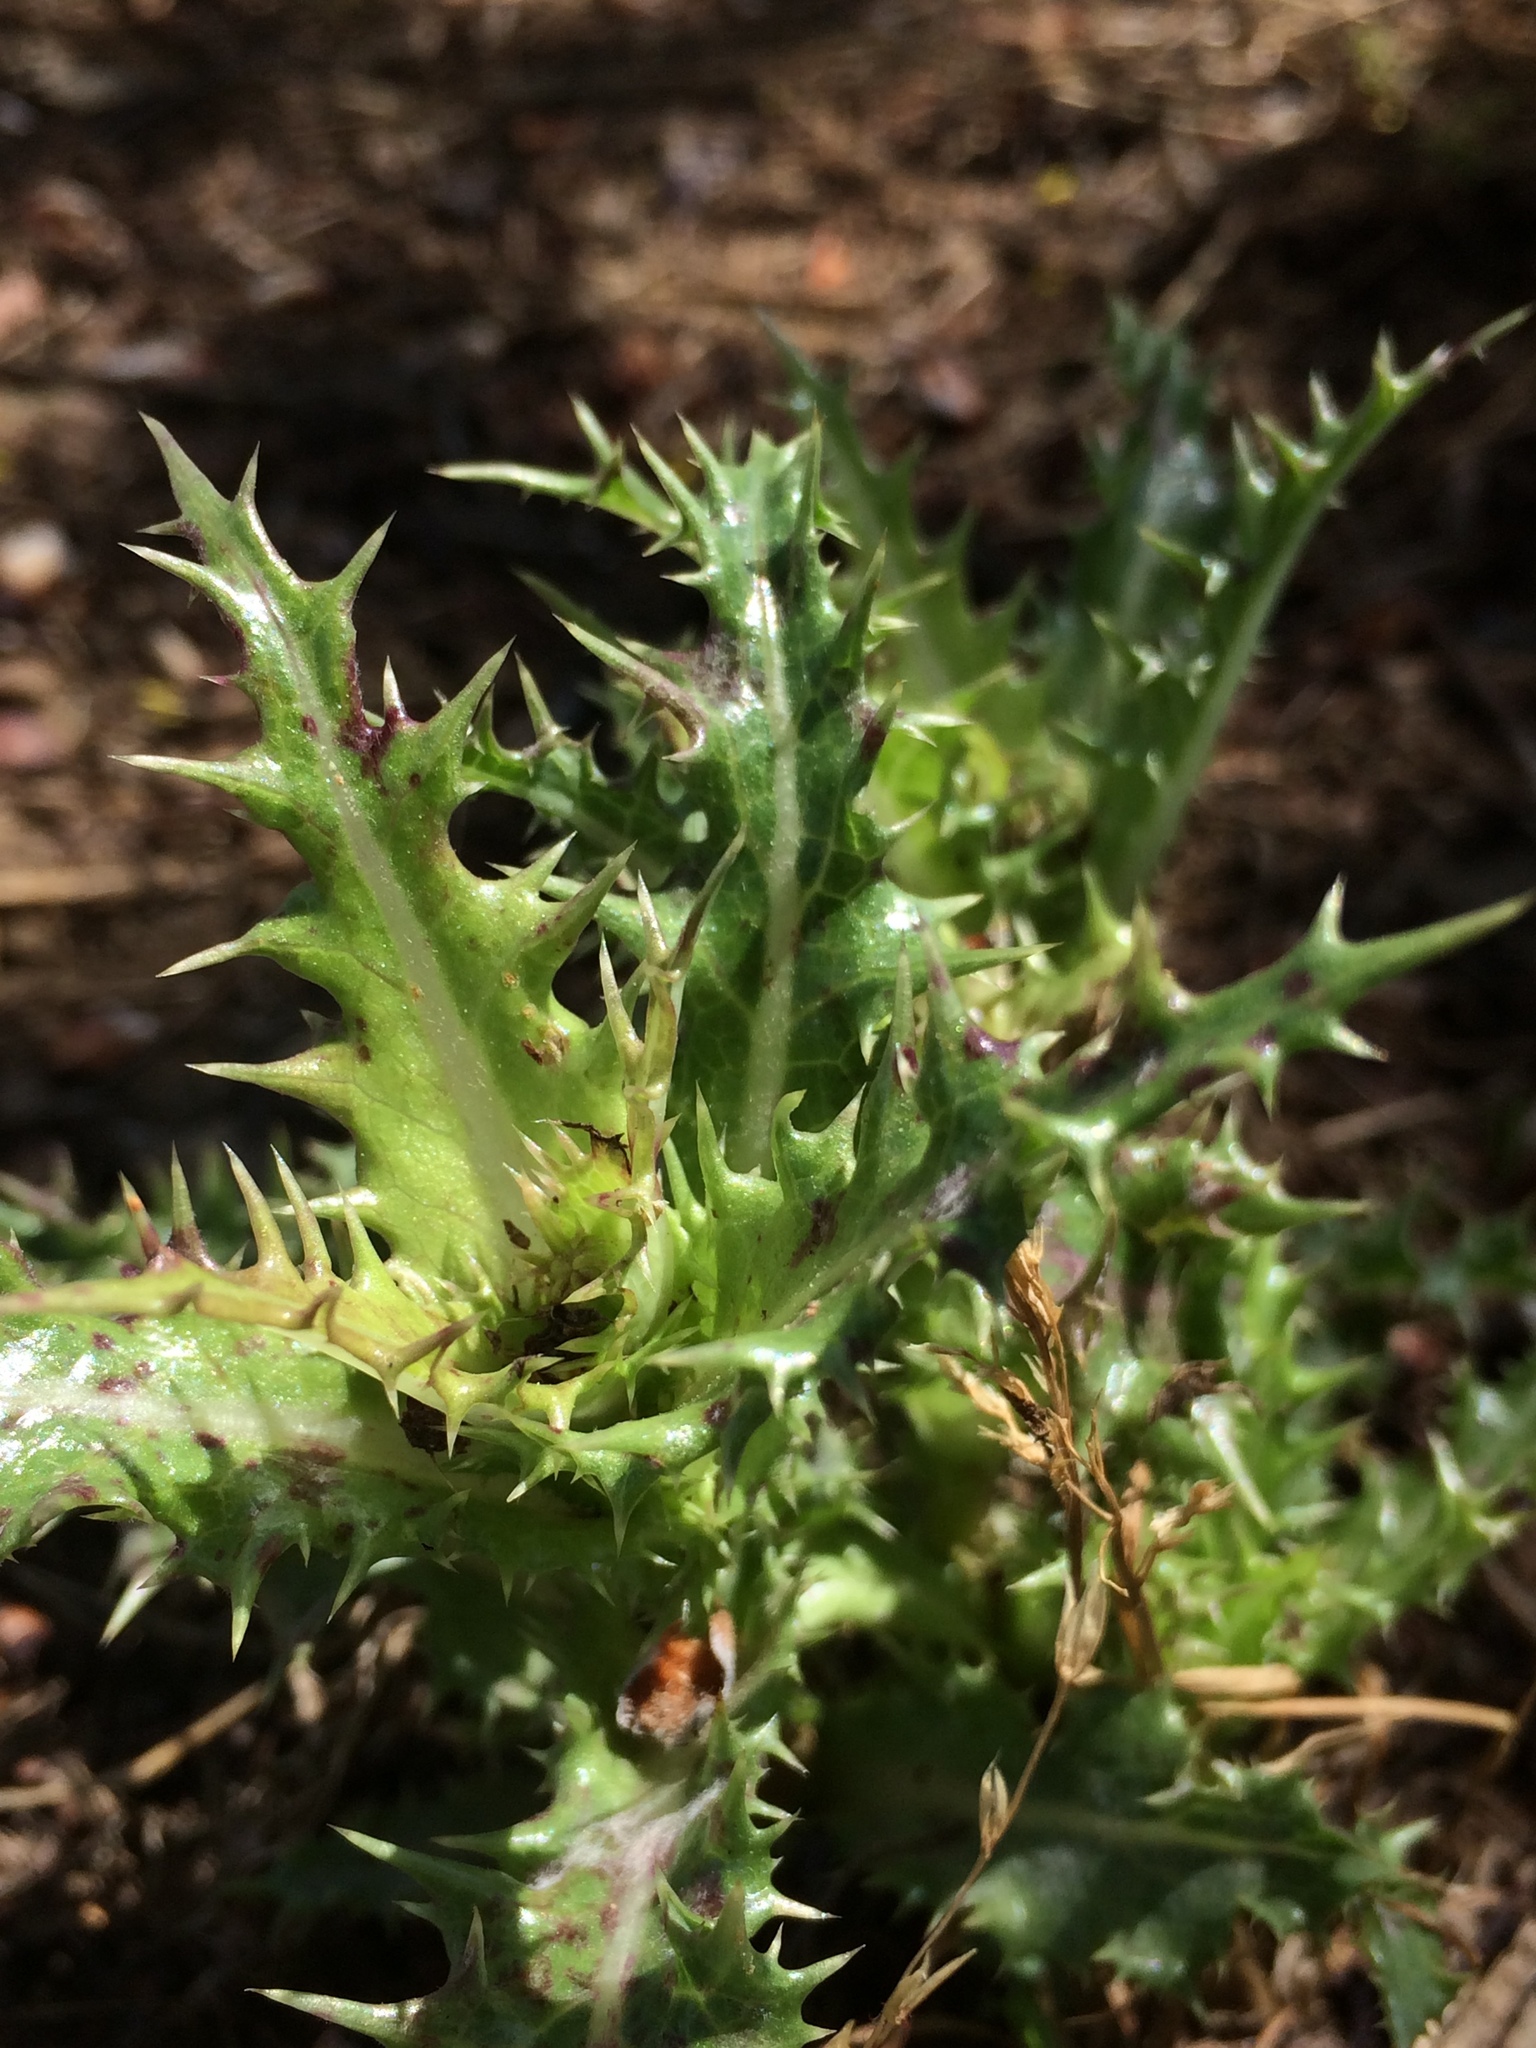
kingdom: Plantae
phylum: Tracheophyta
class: Magnoliopsida
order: Asterales
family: Asteraceae
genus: Sonchus
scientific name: Sonchus asper
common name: Prickly sow-thistle
